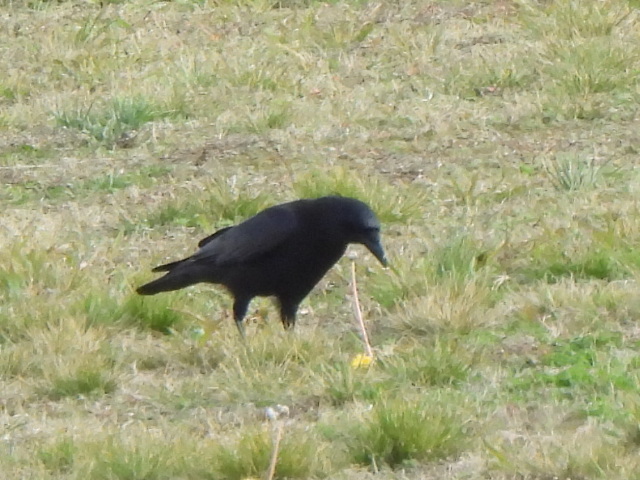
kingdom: Animalia
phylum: Chordata
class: Aves
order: Passeriformes
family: Corvidae
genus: Corvus
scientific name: Corvus brachyrhynchos
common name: American crow
